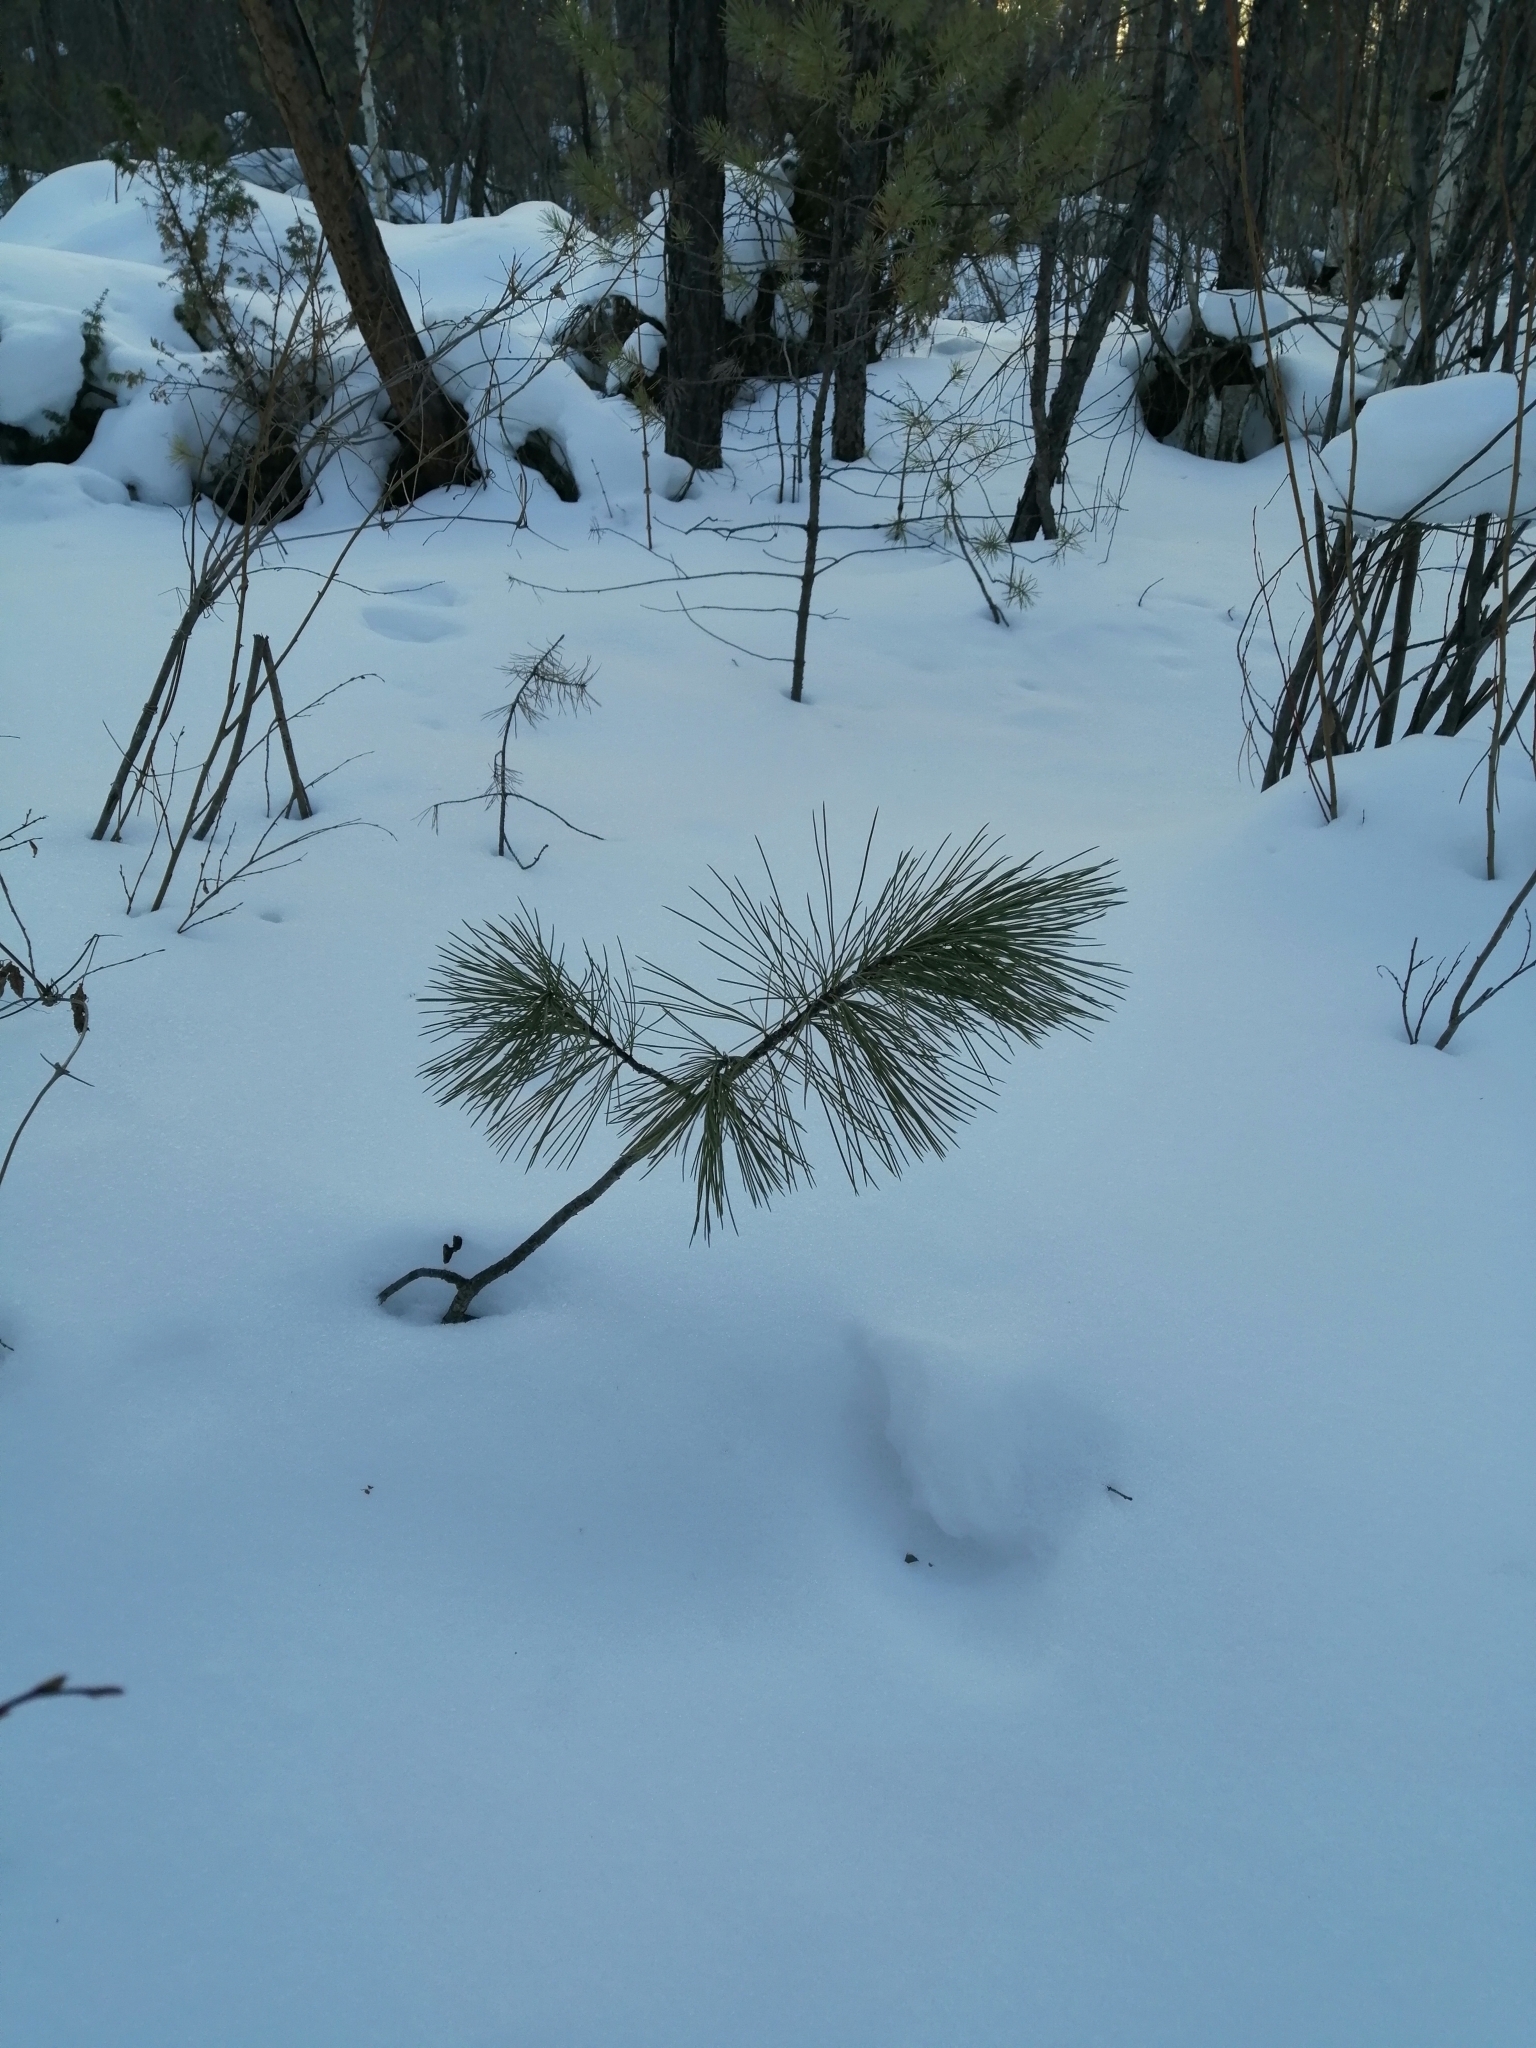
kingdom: Plantae
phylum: Tracheophyta
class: Pinopsida
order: Pinales
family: Pinaceae
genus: Pinus
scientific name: Pinus sibirica
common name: Siberian pine
